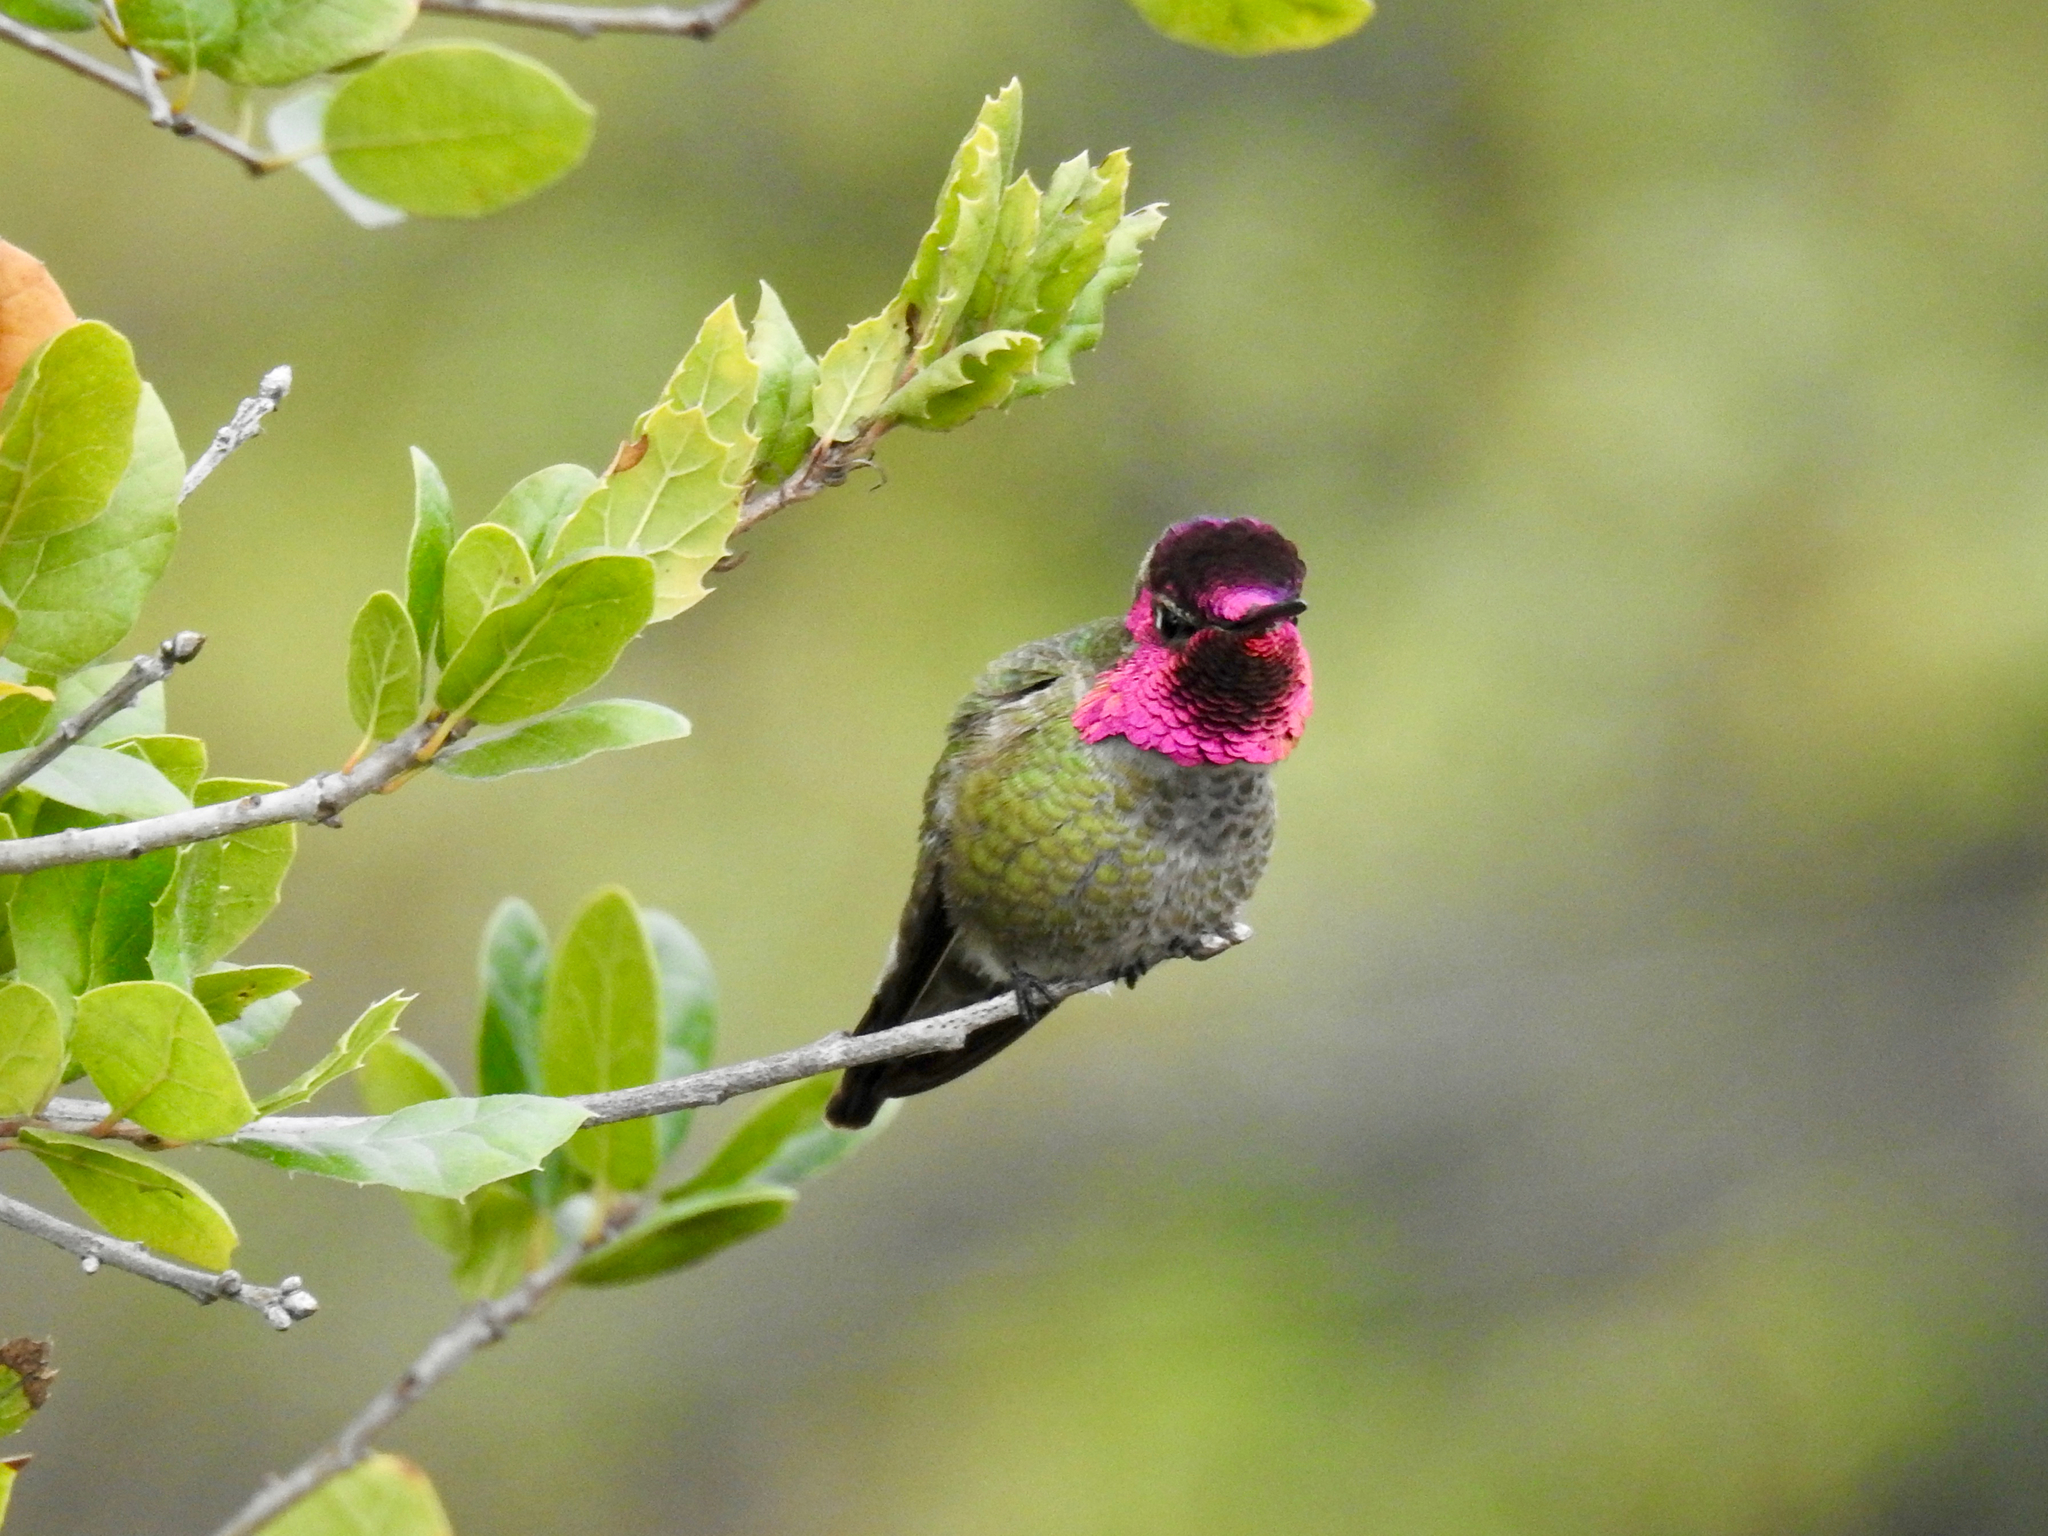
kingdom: Animalia
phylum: Chordata
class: Aves
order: Apodiformes
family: Trochilidae
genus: Calypte
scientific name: Calypte anna
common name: Anna's hummingbird
